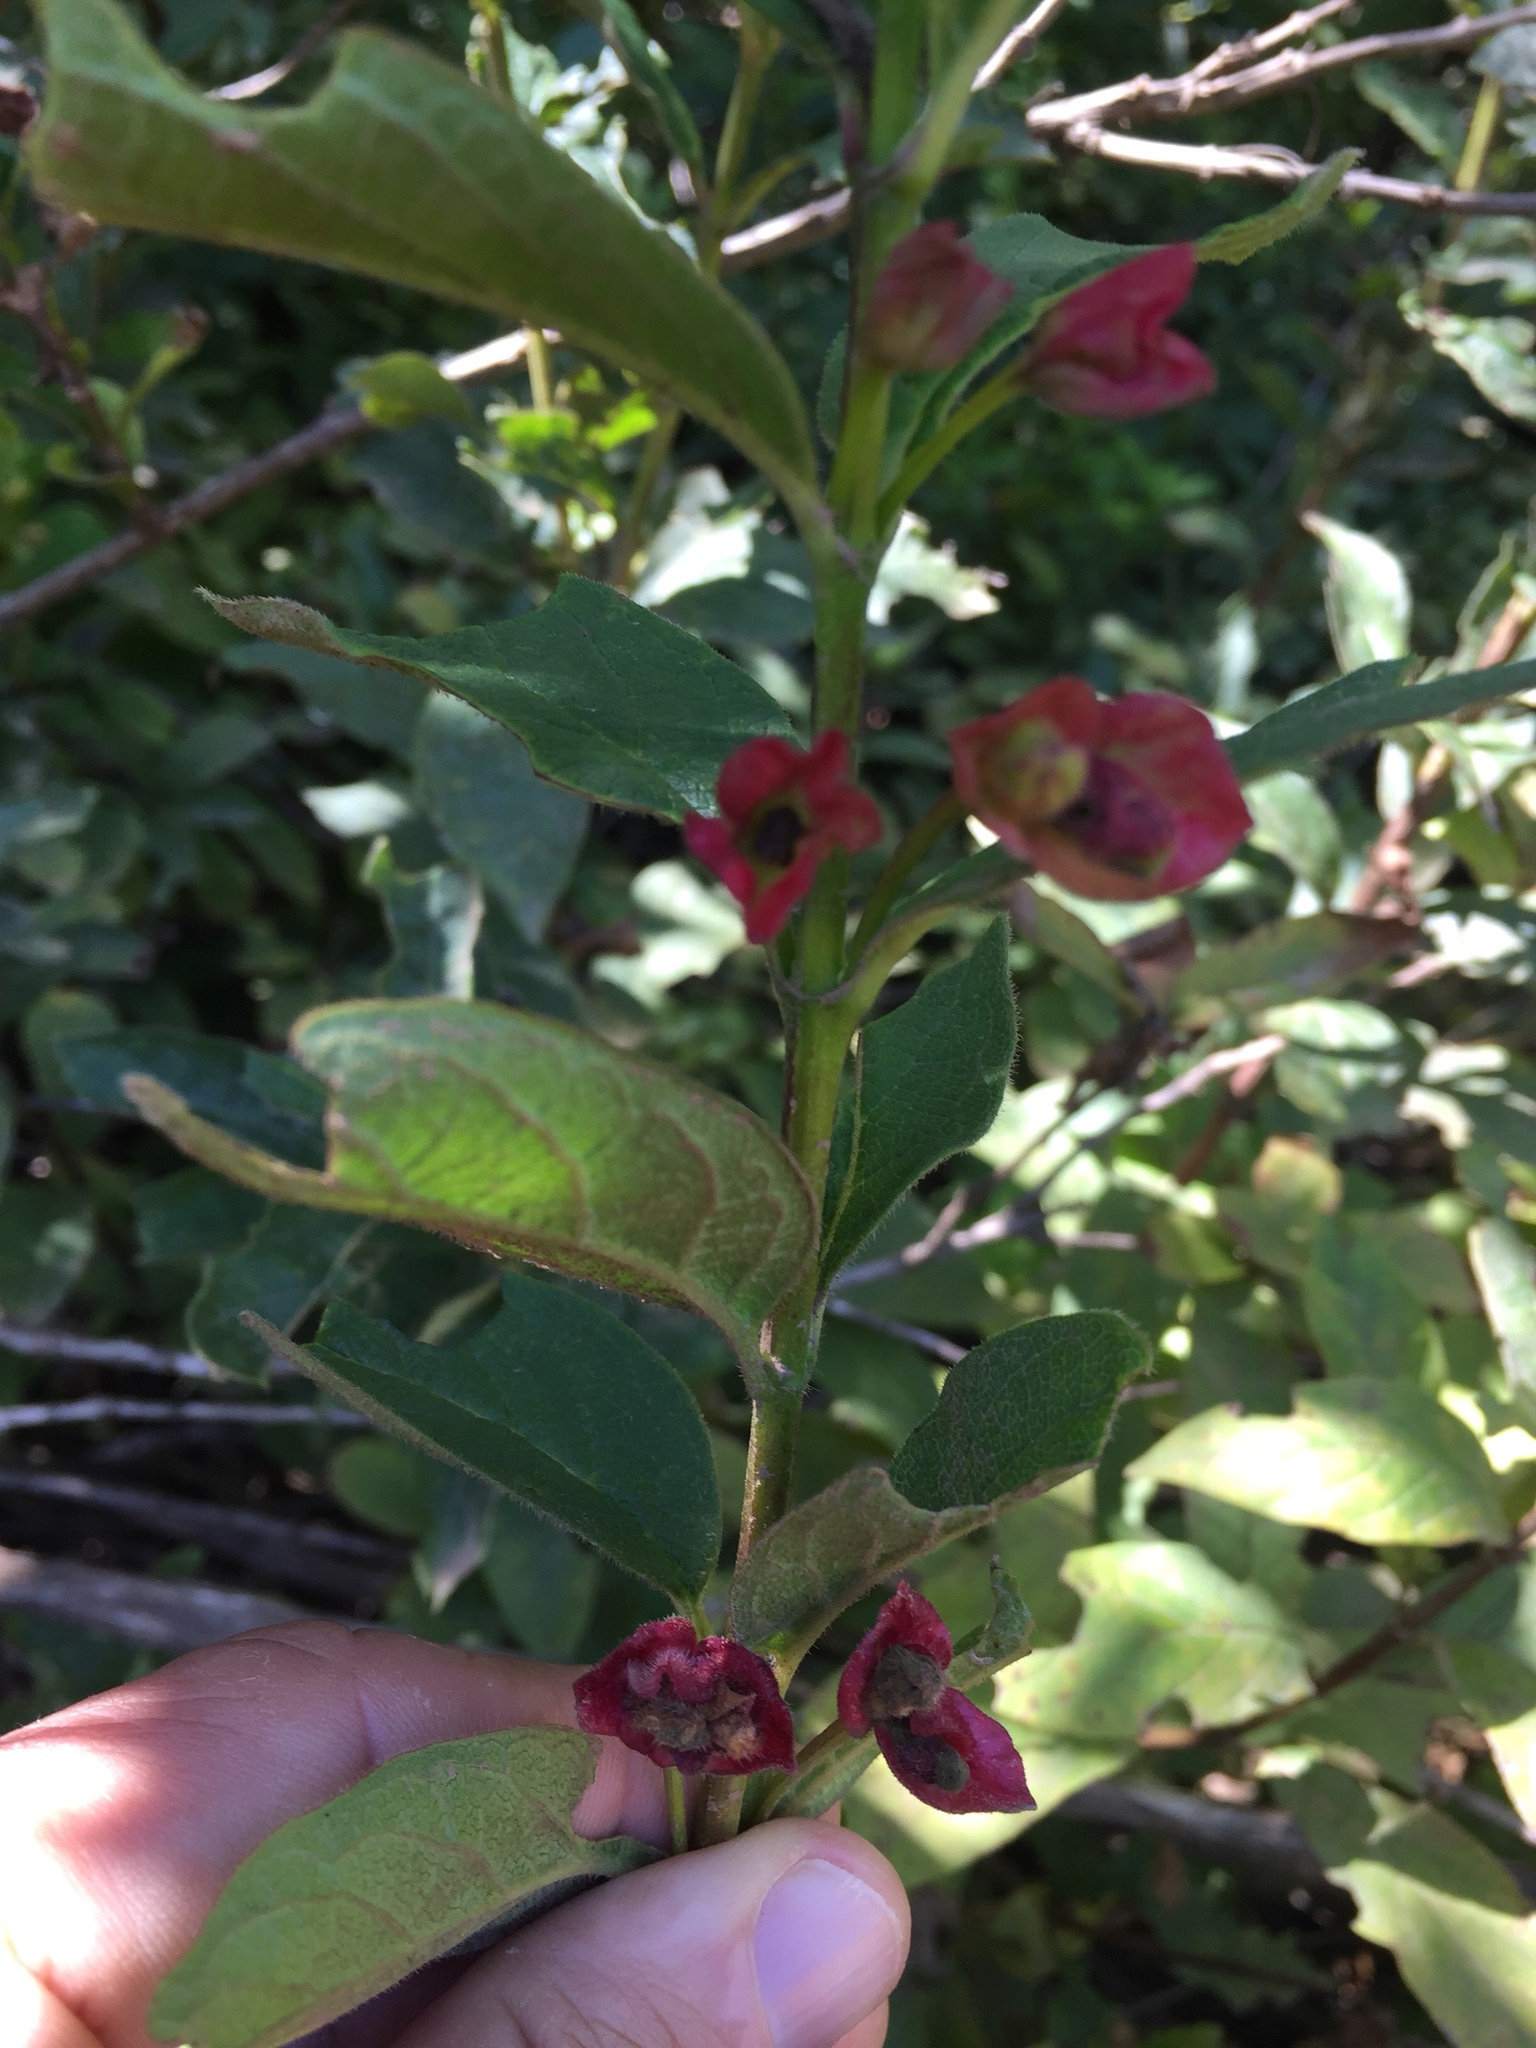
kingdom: Plantae
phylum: Tracheophyta
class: Magnoliopsida
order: Dipsacales
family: Caprifoliaceae
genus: Lonicera
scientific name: Lonicera involucrata
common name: Californian honeysuckle
